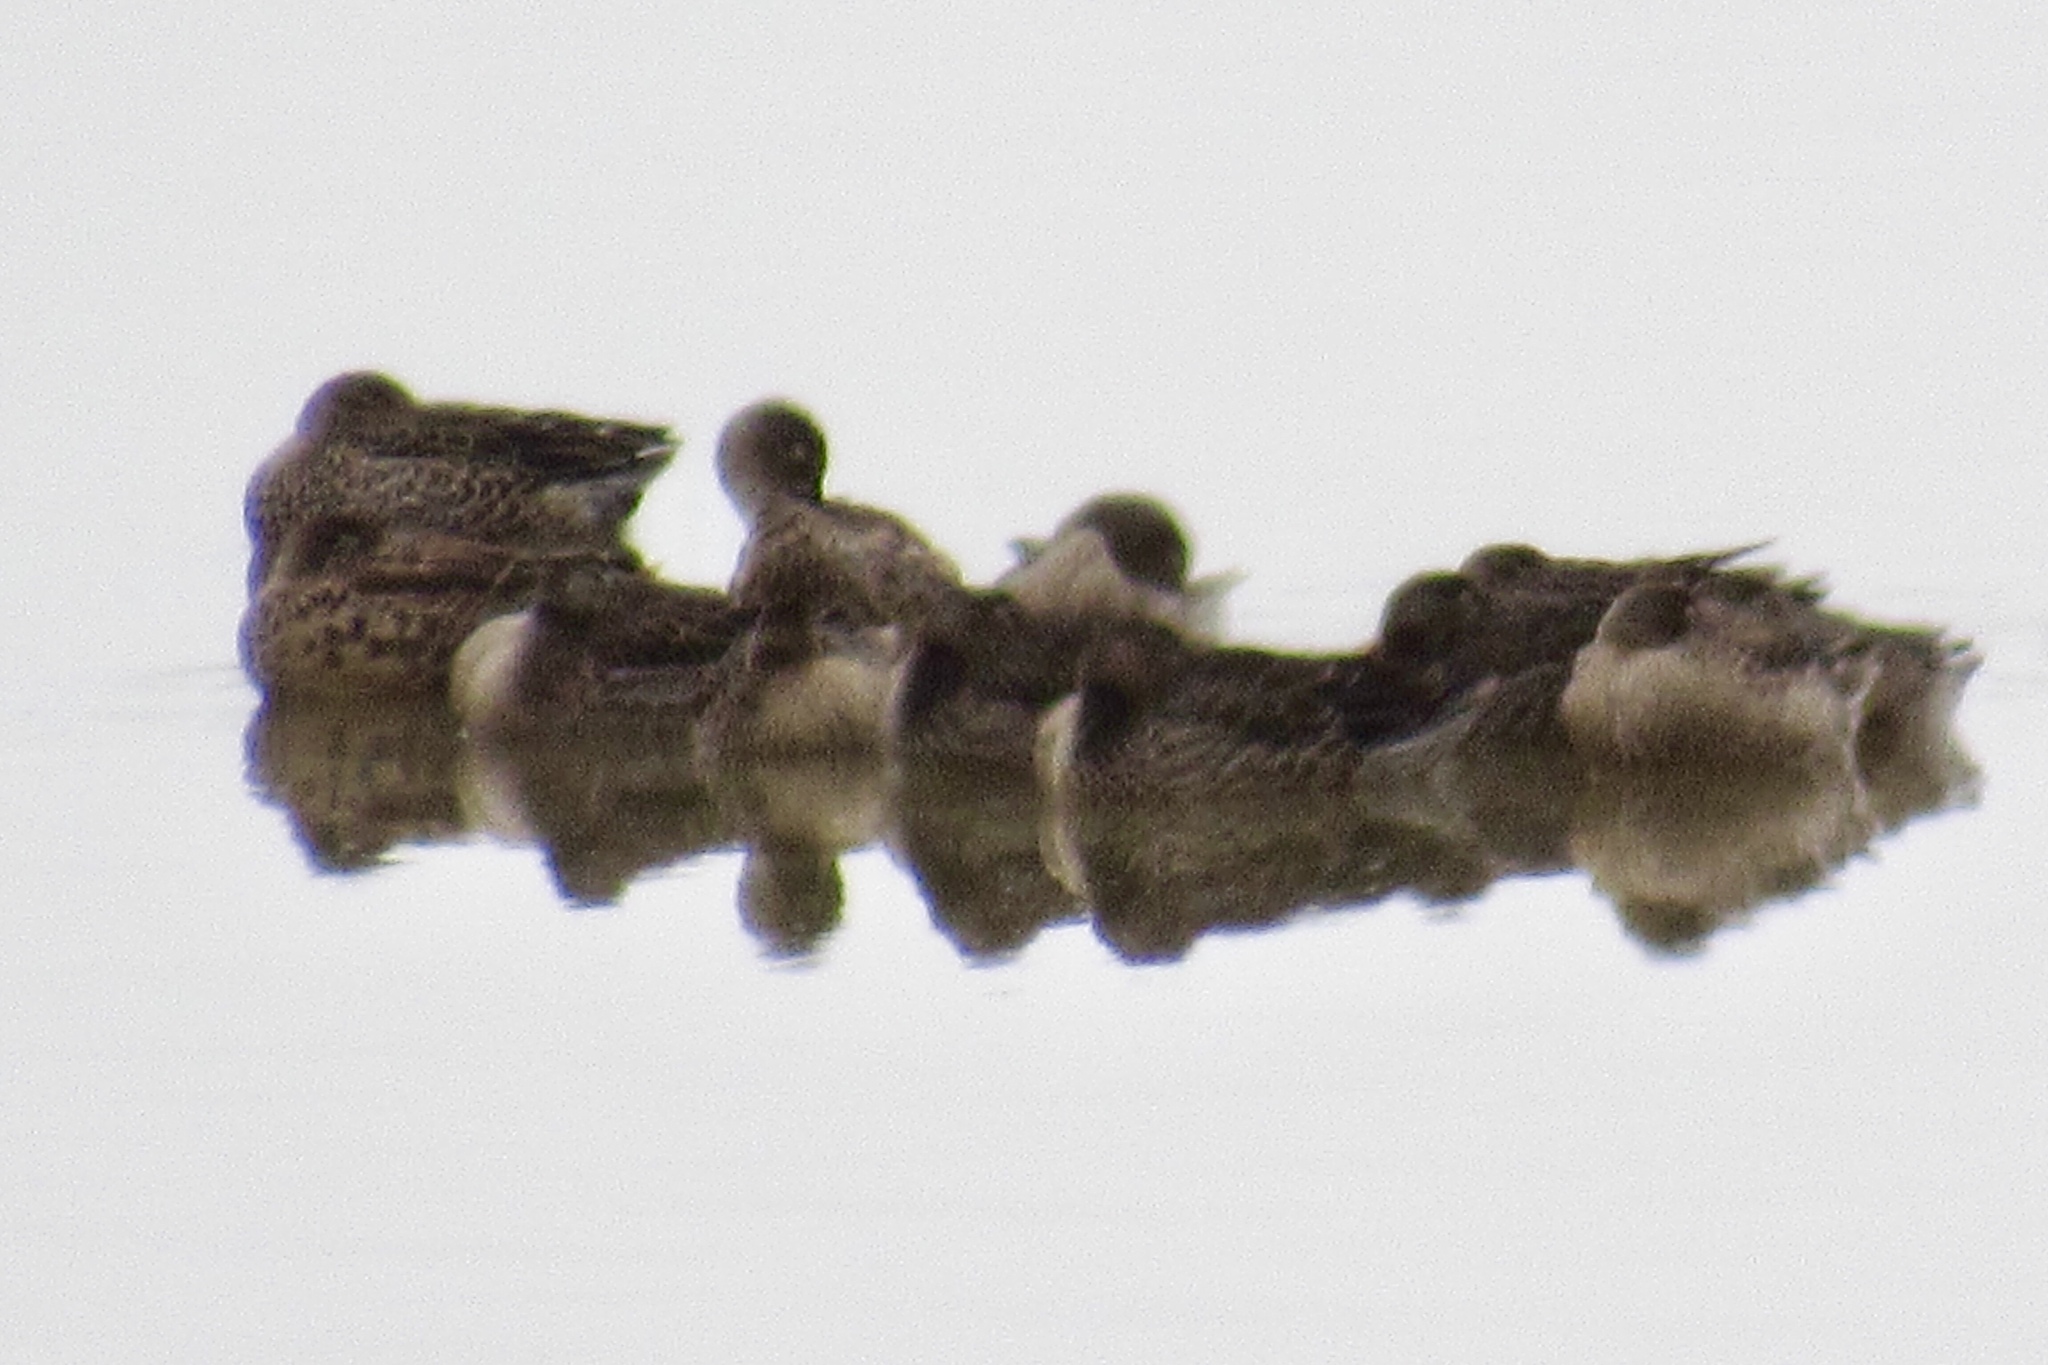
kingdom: Animalia
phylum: Chordata
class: Aves
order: Anseriformes
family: Anatidae
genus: Spatula
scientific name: Spatula discors
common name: Blue-winged teal
